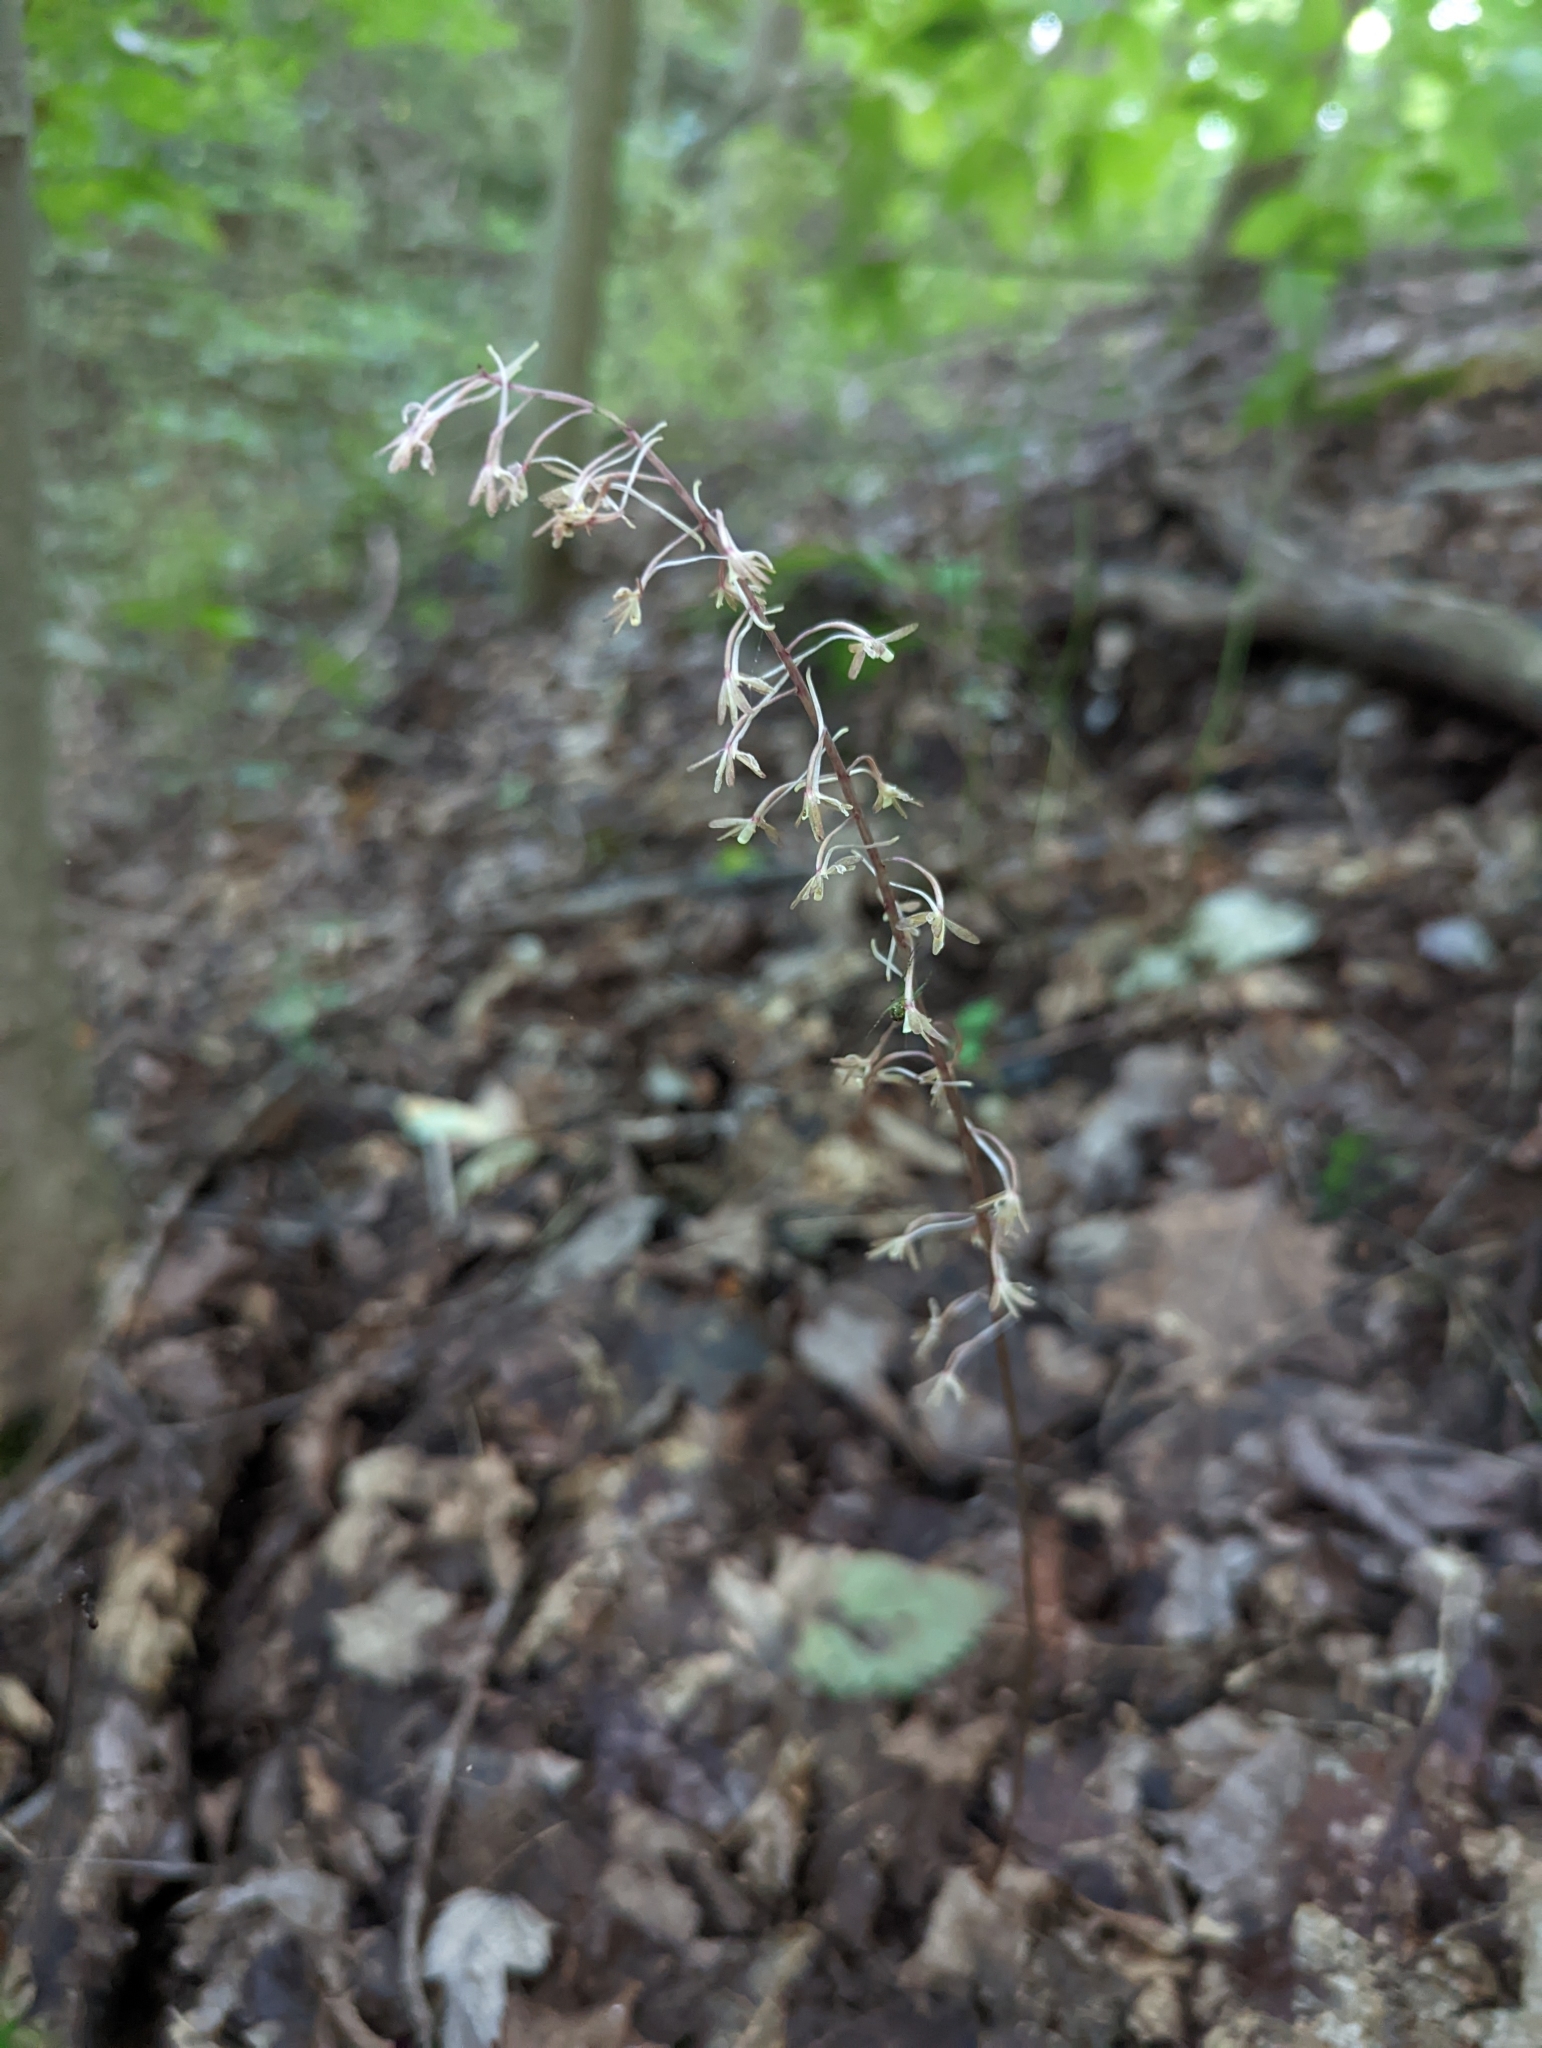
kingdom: Plantae
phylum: Tracheophyta
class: Liliopsida
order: Asparagales
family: Orchidaceae
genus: Tipularia
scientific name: Tipularia discolor
